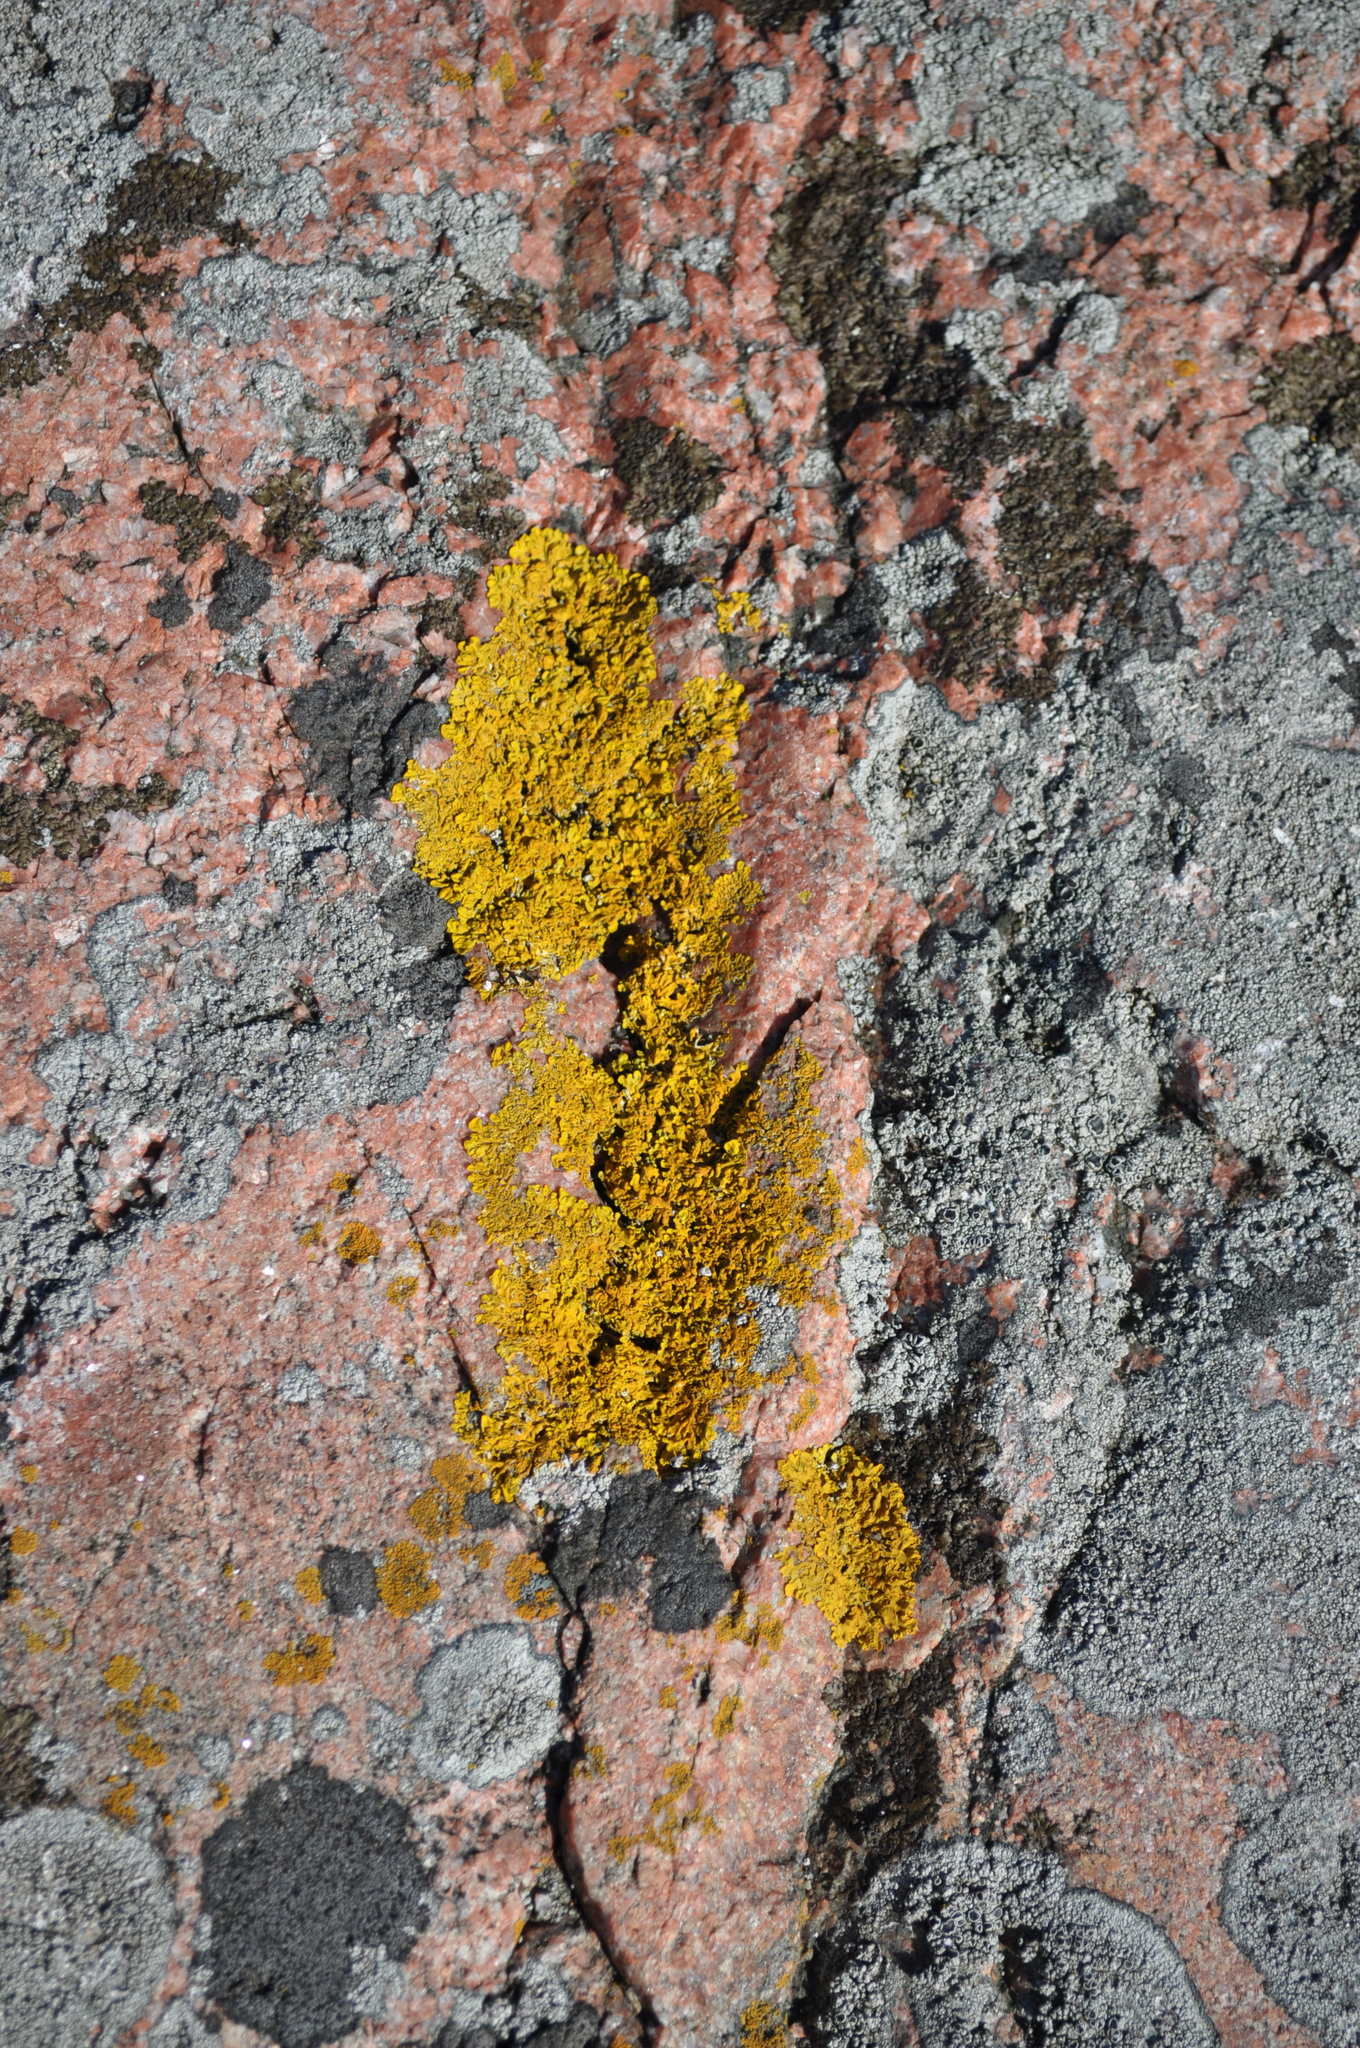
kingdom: Fungi
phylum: Ascomycota
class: Lecanoromycetes
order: Teloschistales
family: Teloschistaceae
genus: Xanthoria
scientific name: Xanthoria parietina
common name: Common orange lichen
